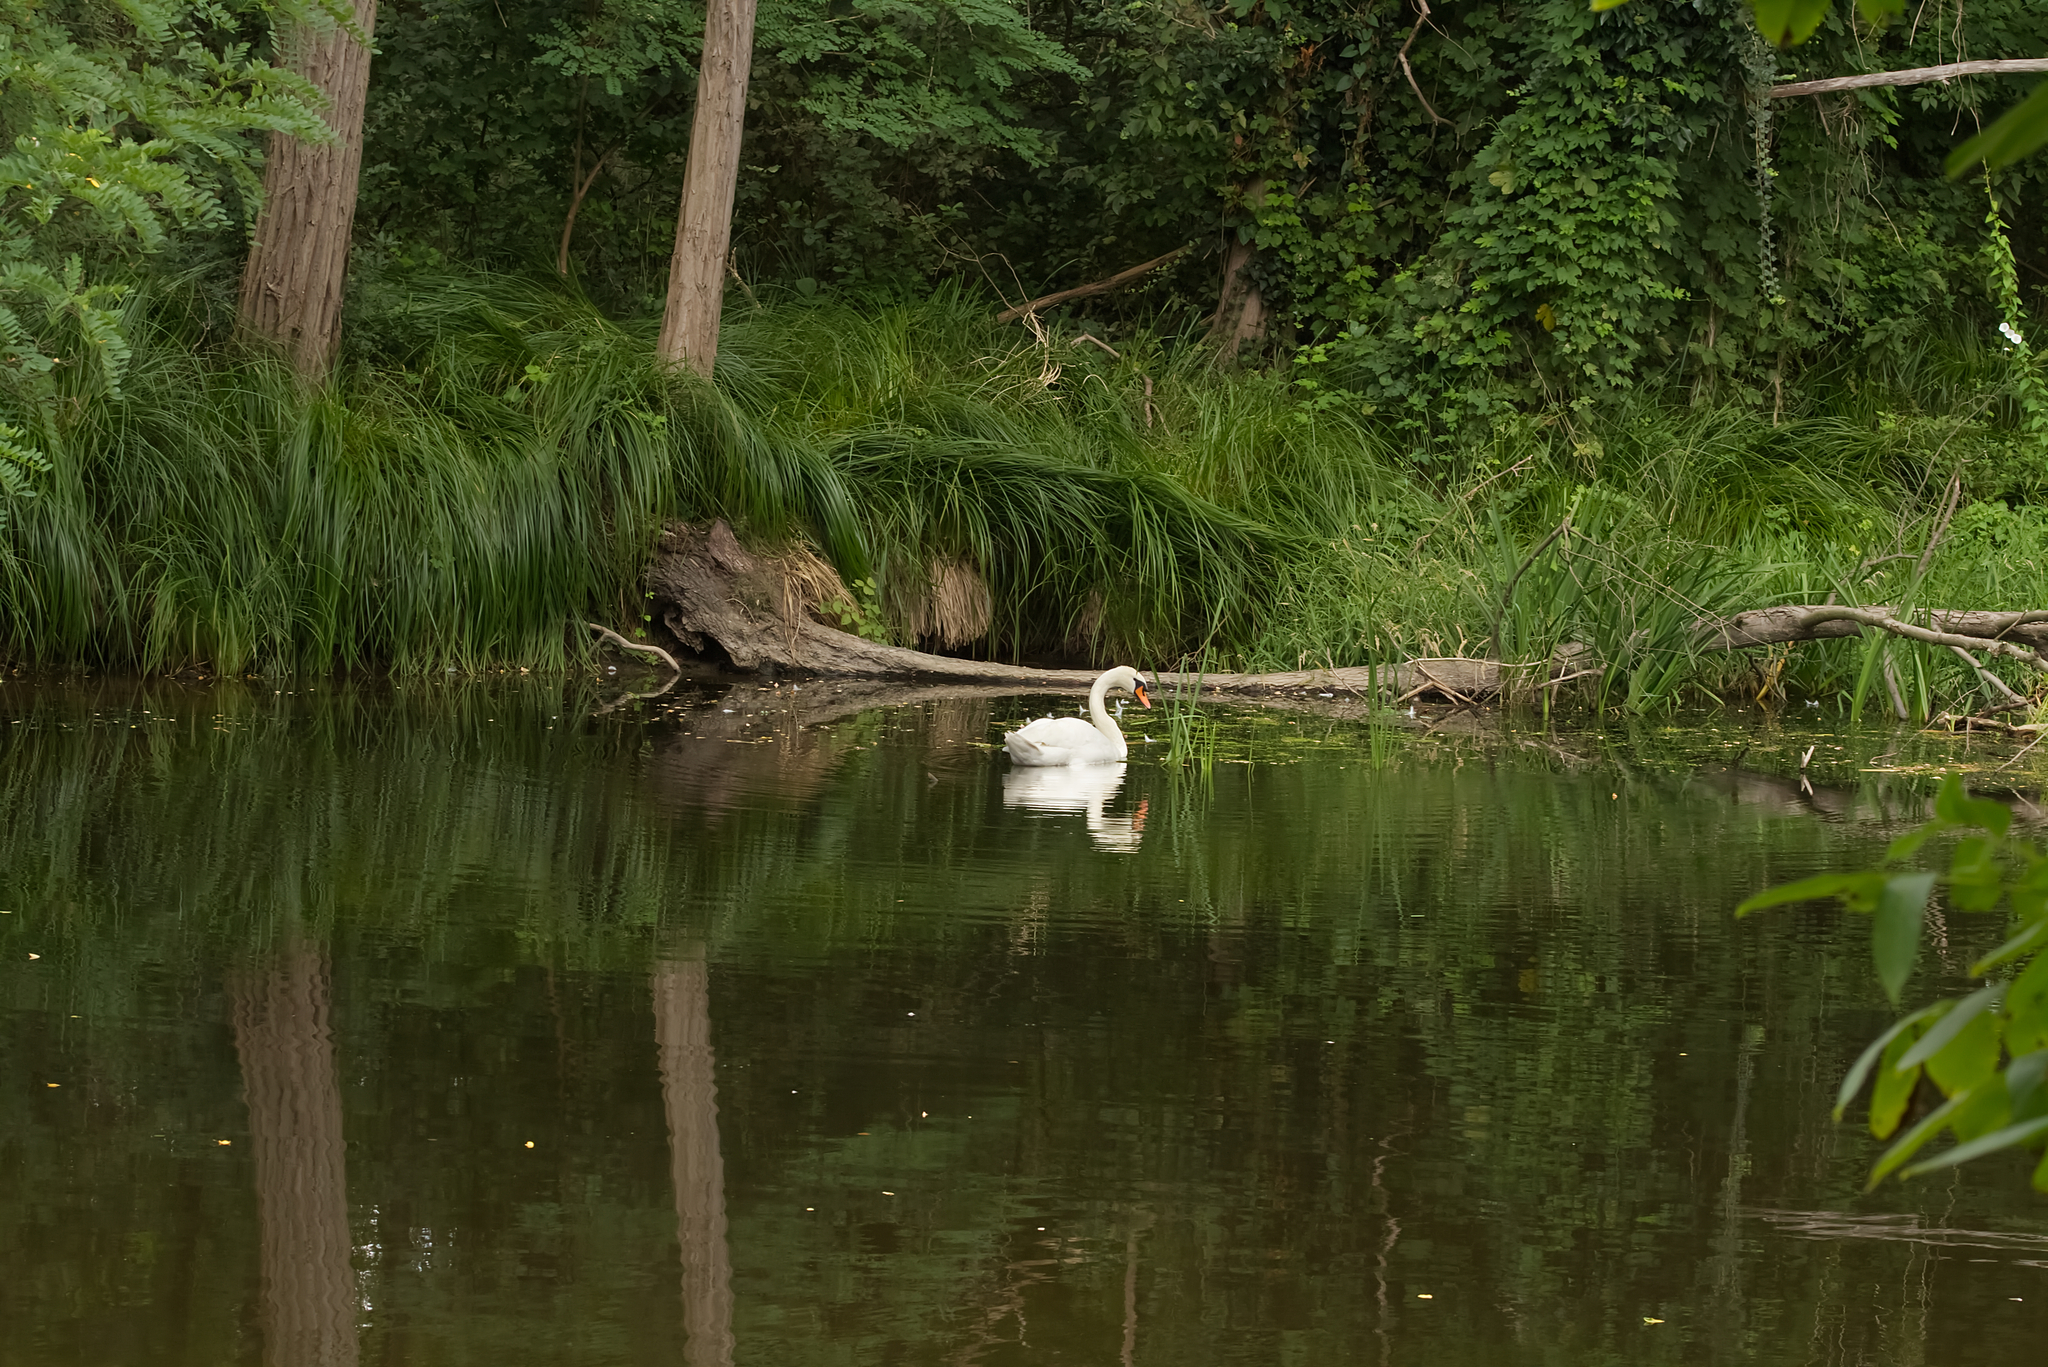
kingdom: Animalia
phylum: Chordata
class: Aves
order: Anseriformes
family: Anatidae
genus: Cygnus
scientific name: Cygnus olor
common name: Mute swan
